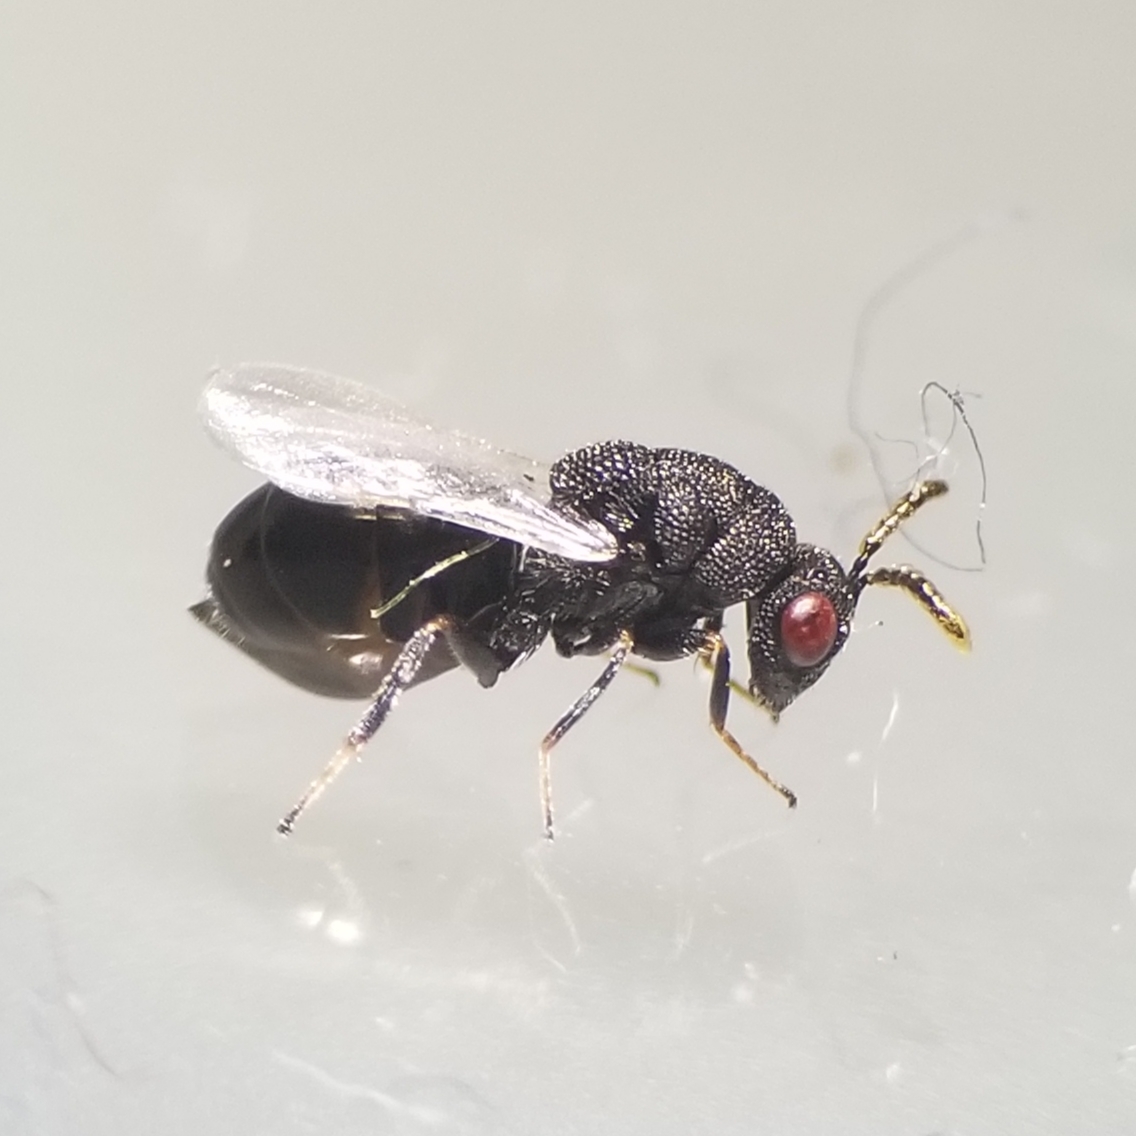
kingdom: Animalia
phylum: Arthropoda
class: Insecta
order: Hymenoptera
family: Eurytomidae
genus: Eurytoma
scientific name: Eurytoma obtusiventris
